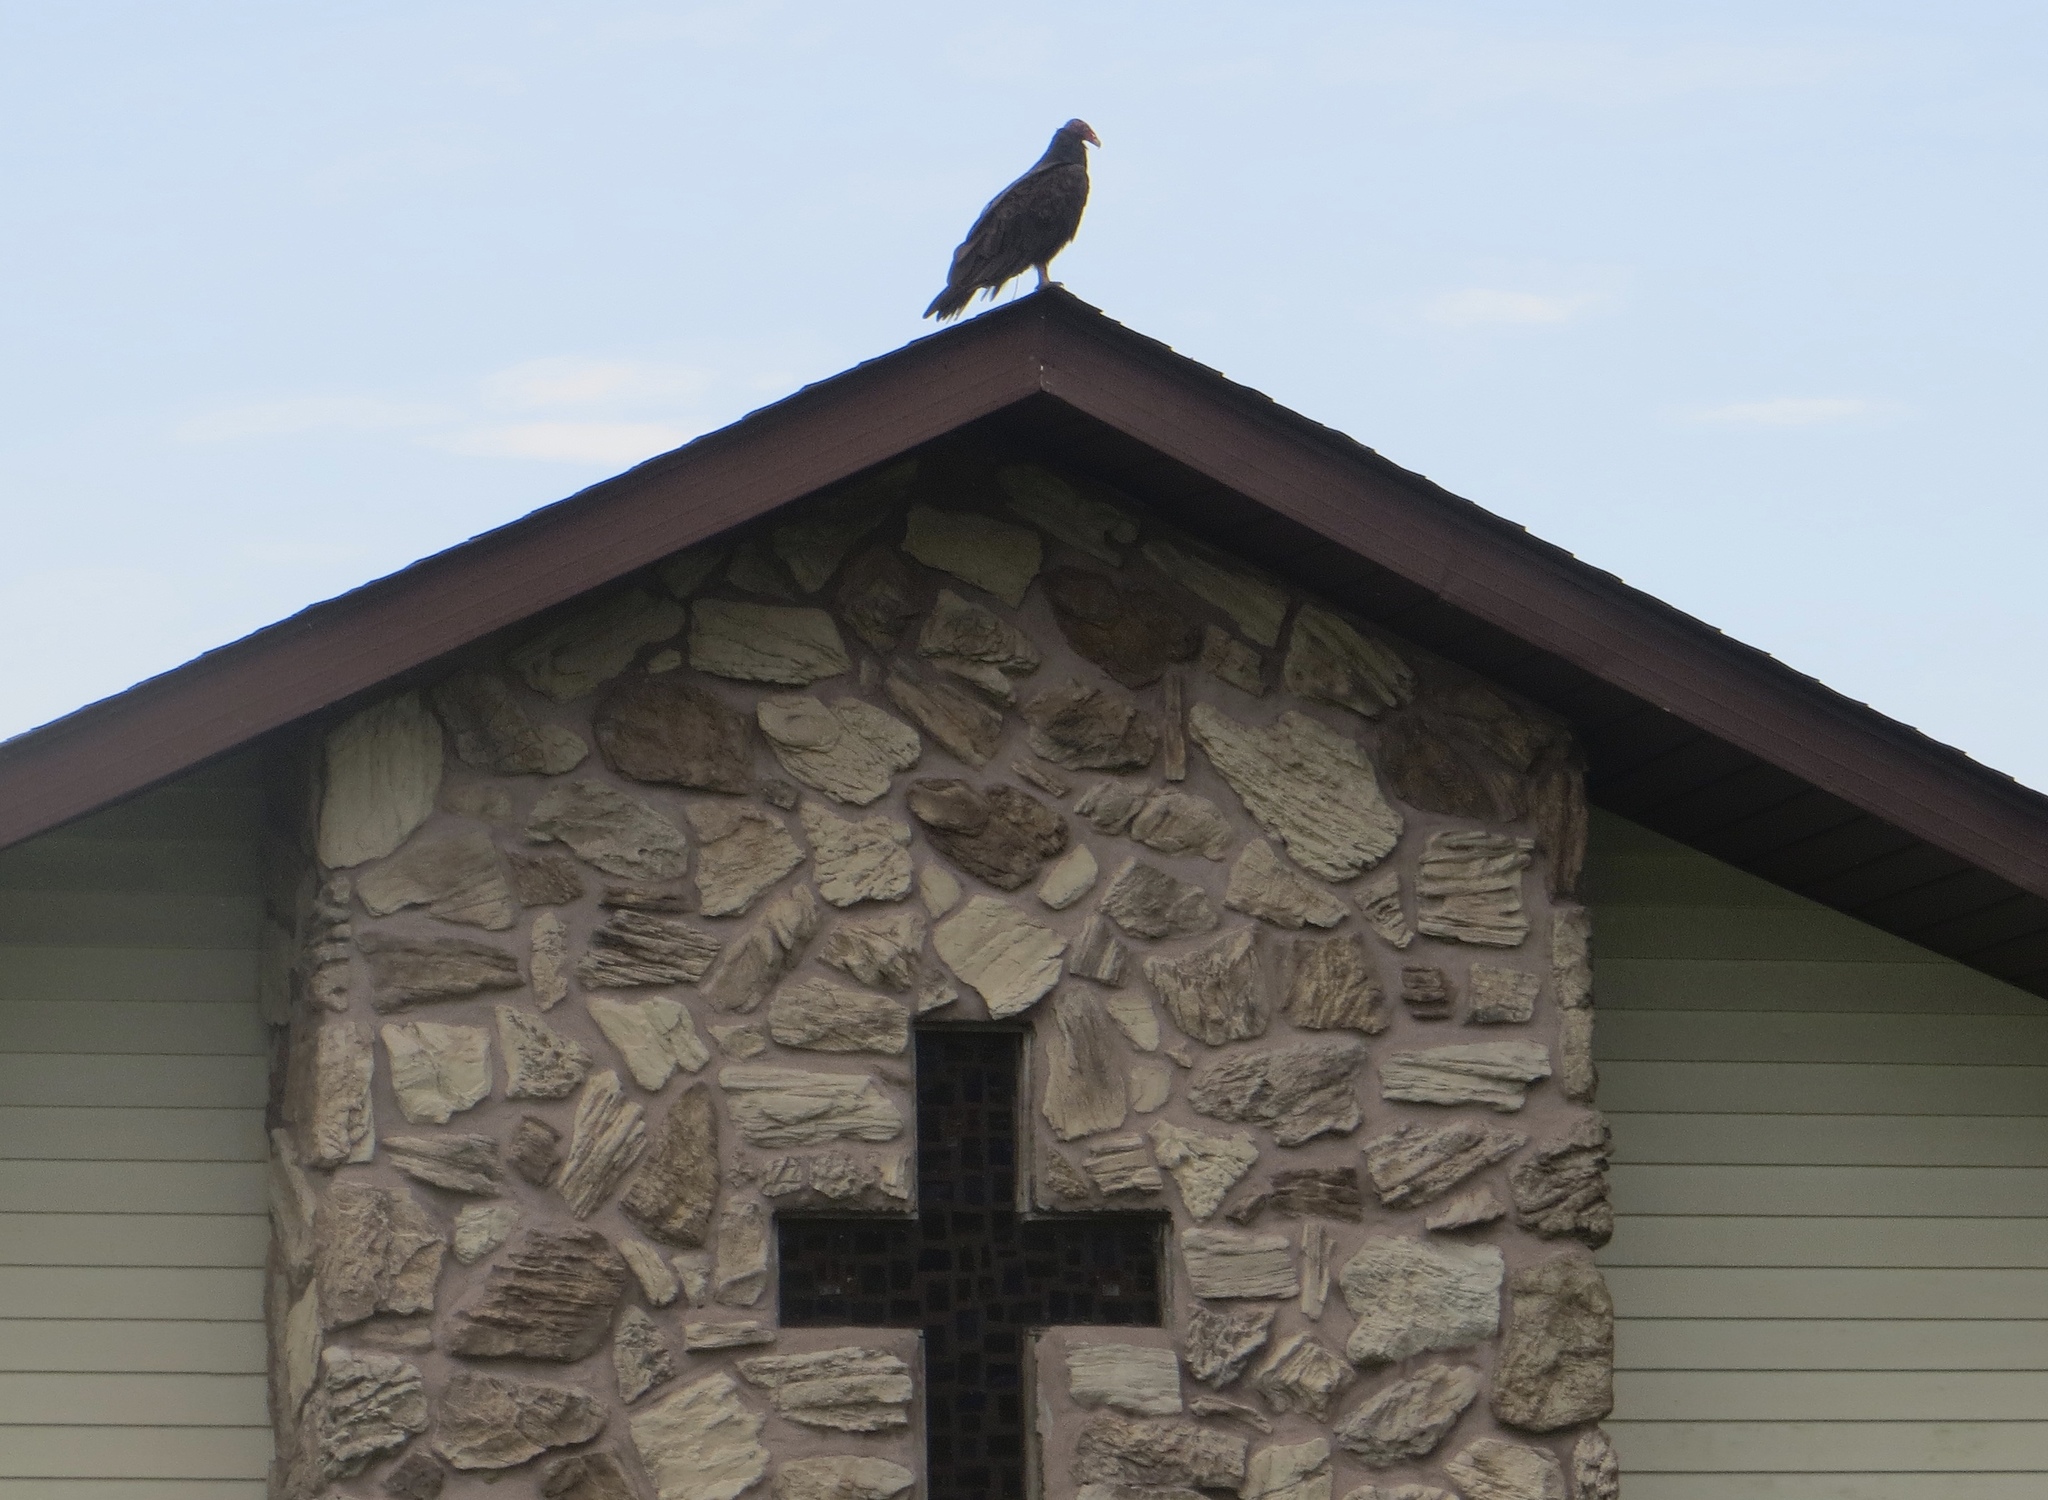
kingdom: Animalia
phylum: Chordata
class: Aves
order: Accipitriformes
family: Cathartidae
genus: Cathartes
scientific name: Cathartes aura
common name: Turkey vulture
